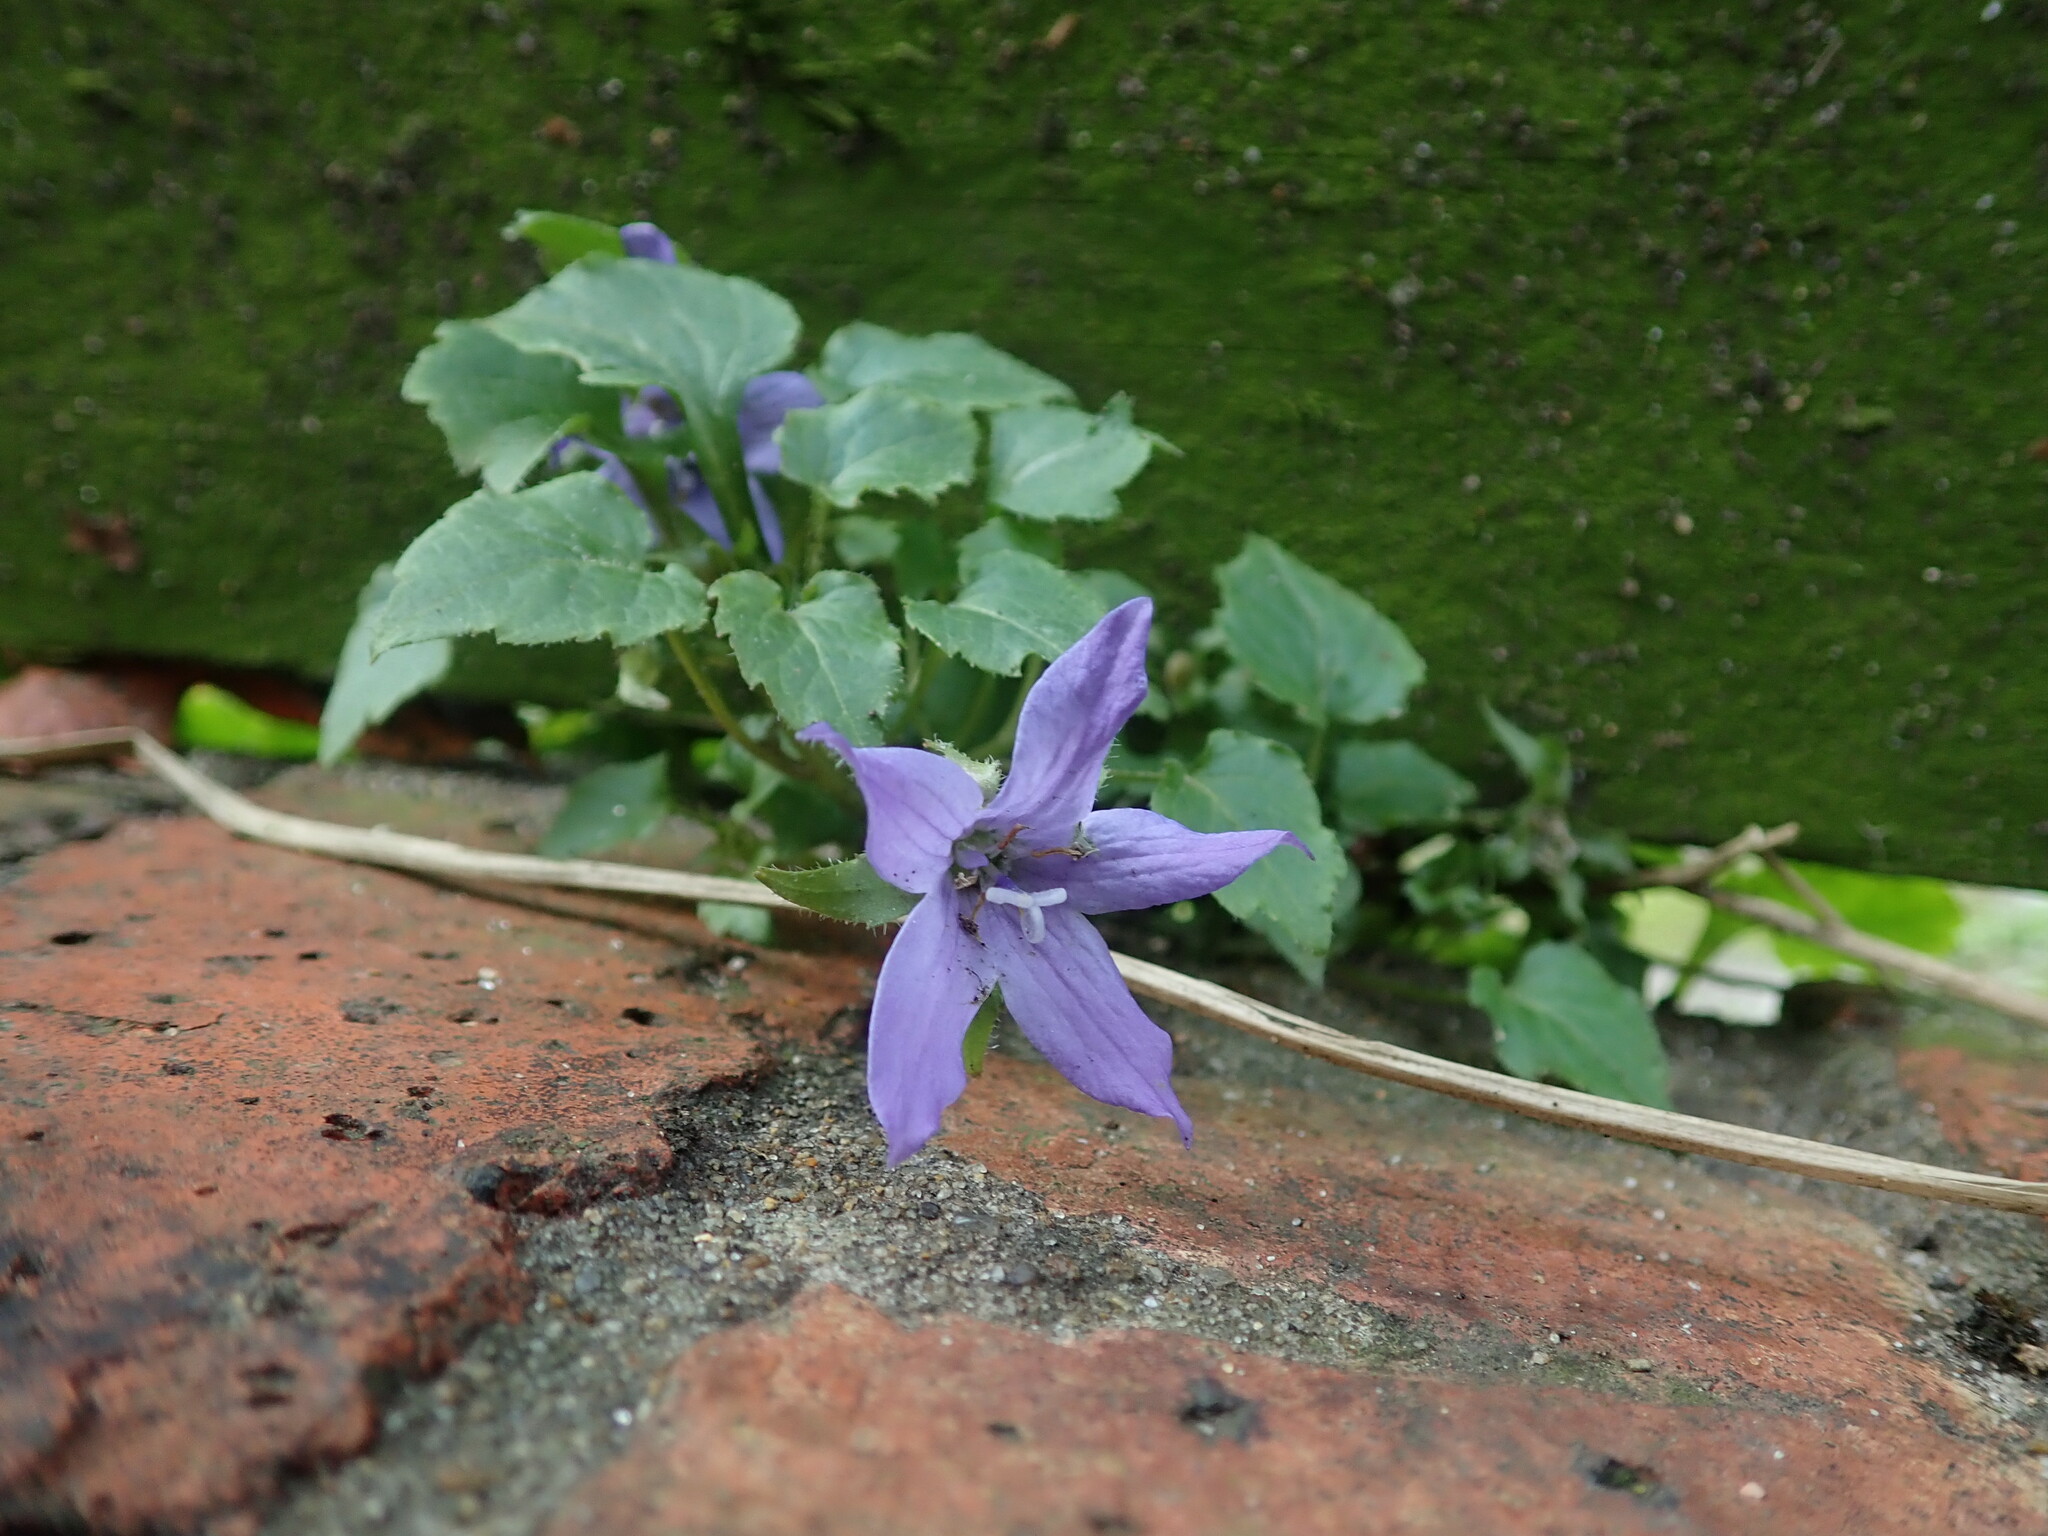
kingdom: Plantae
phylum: Tracheophyta
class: Magnoliopsida
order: Asterales
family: Campanulaceae
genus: Campanula
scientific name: Campanula poscharskyana
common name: Trailing bellflower
